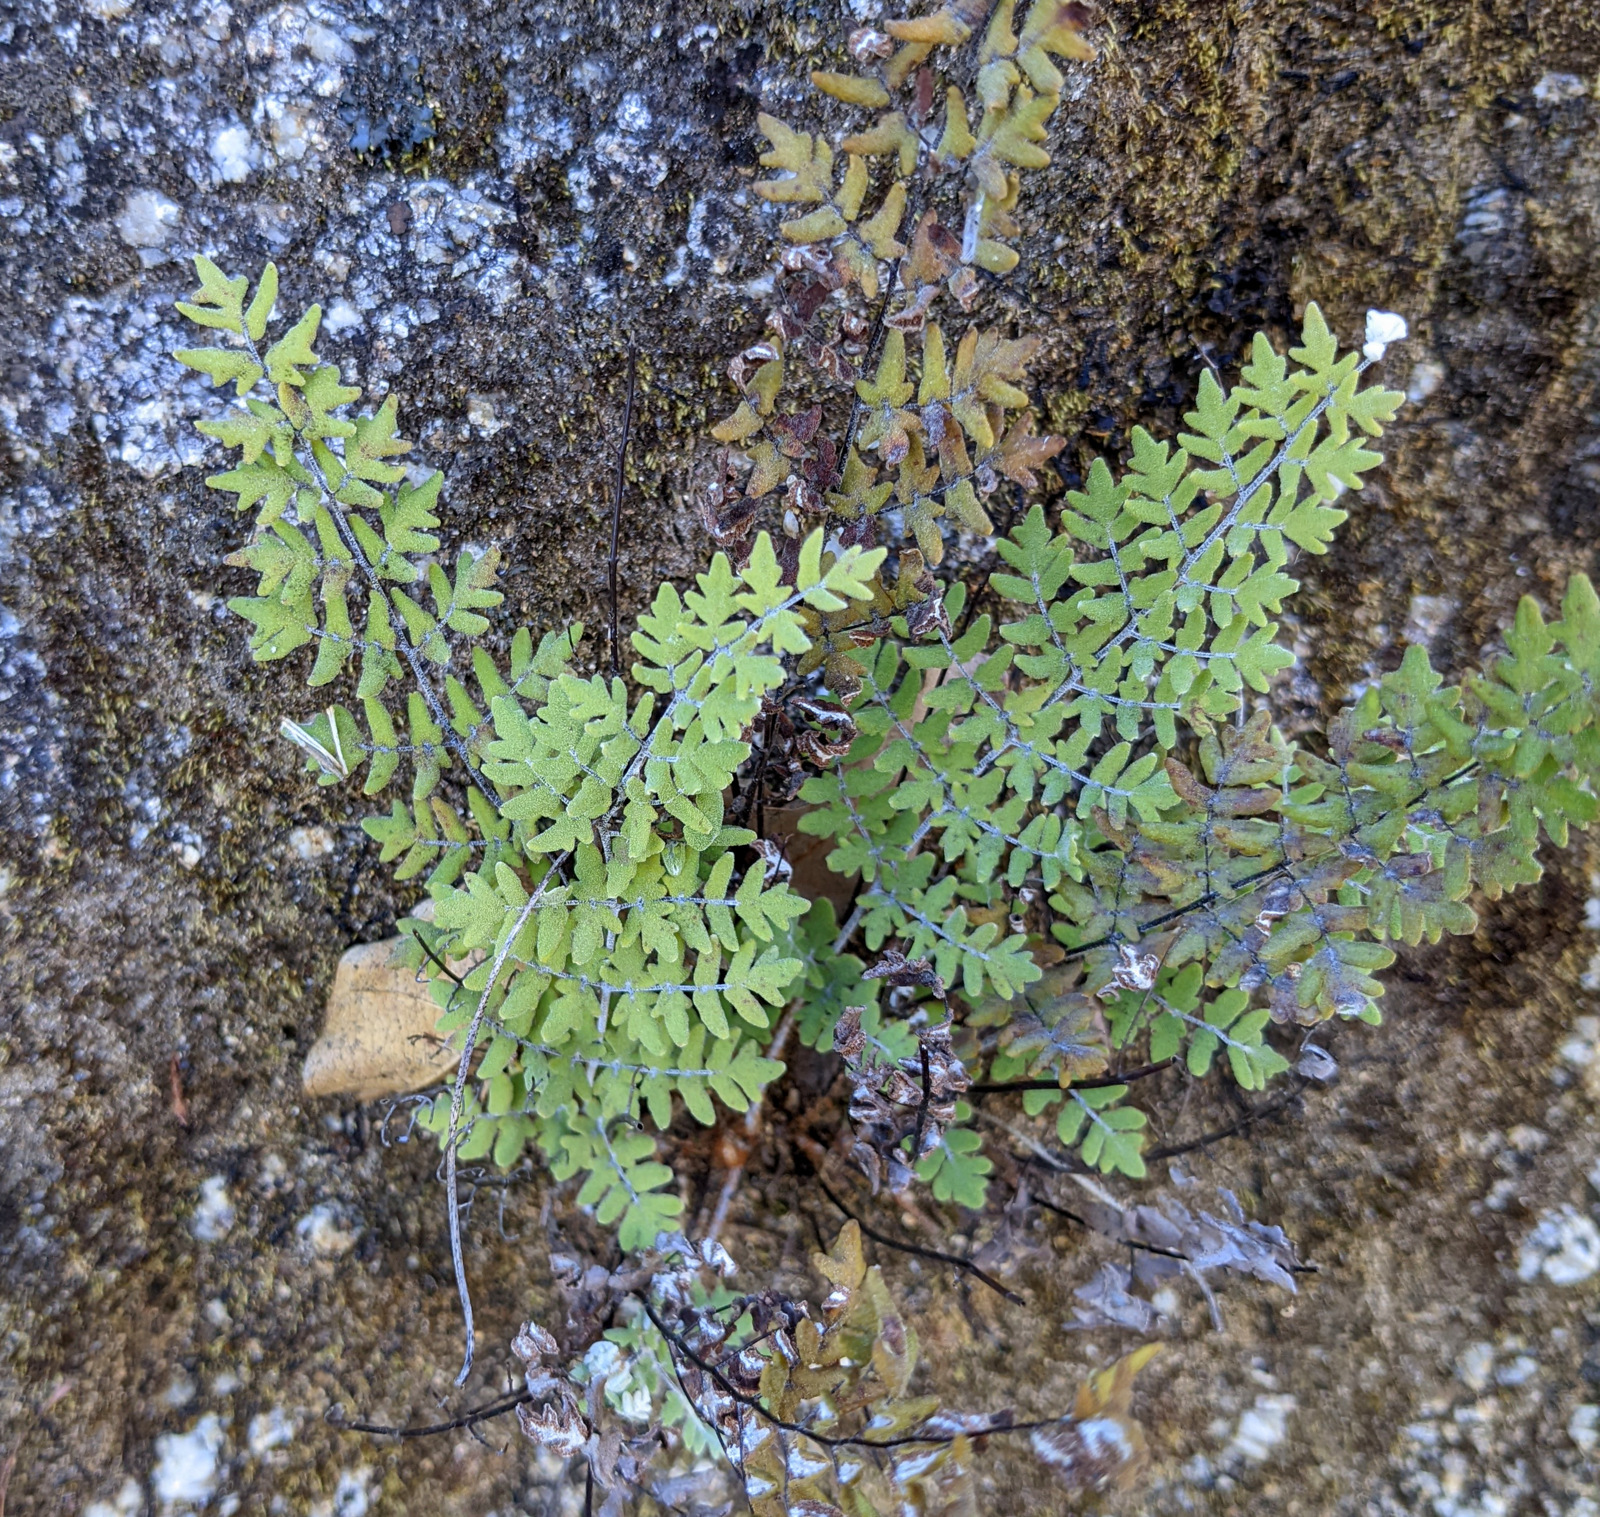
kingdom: Plantae
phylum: Tracheophyta
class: Polypodiopsida
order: Polypodiales
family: Pteridaceae
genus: Argyrochosma
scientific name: Argyrochosma peninsularis
